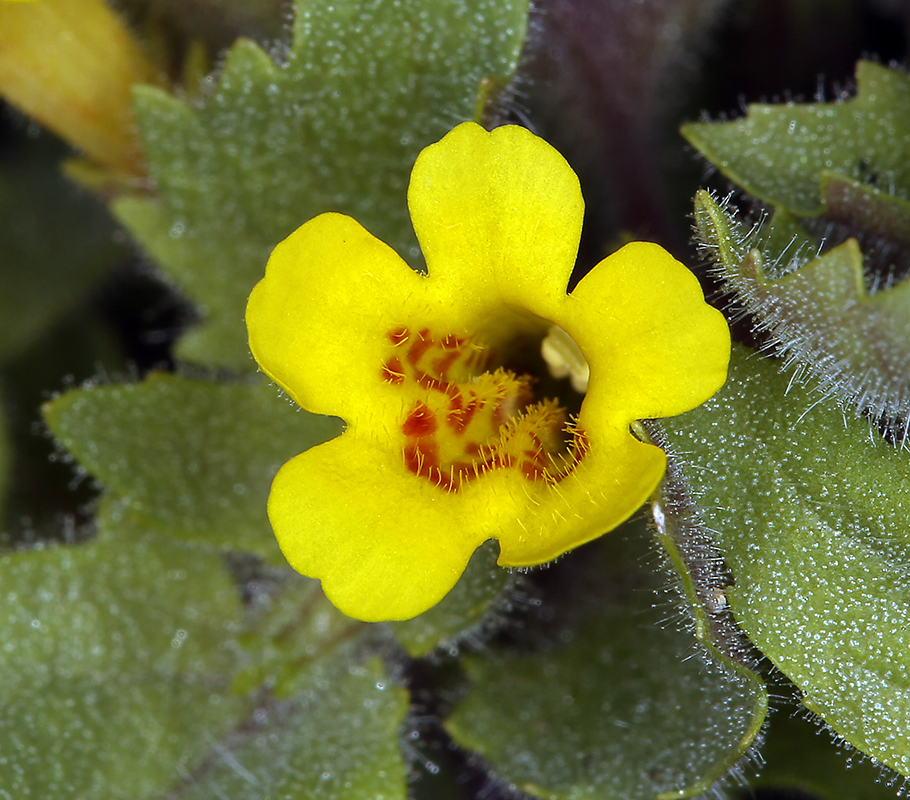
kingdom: Plantae
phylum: Tracheophyta
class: Magnoliopsida
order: Lamiales
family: Phrymaceae
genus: Erythranthe
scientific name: Erythranthe geniculata
